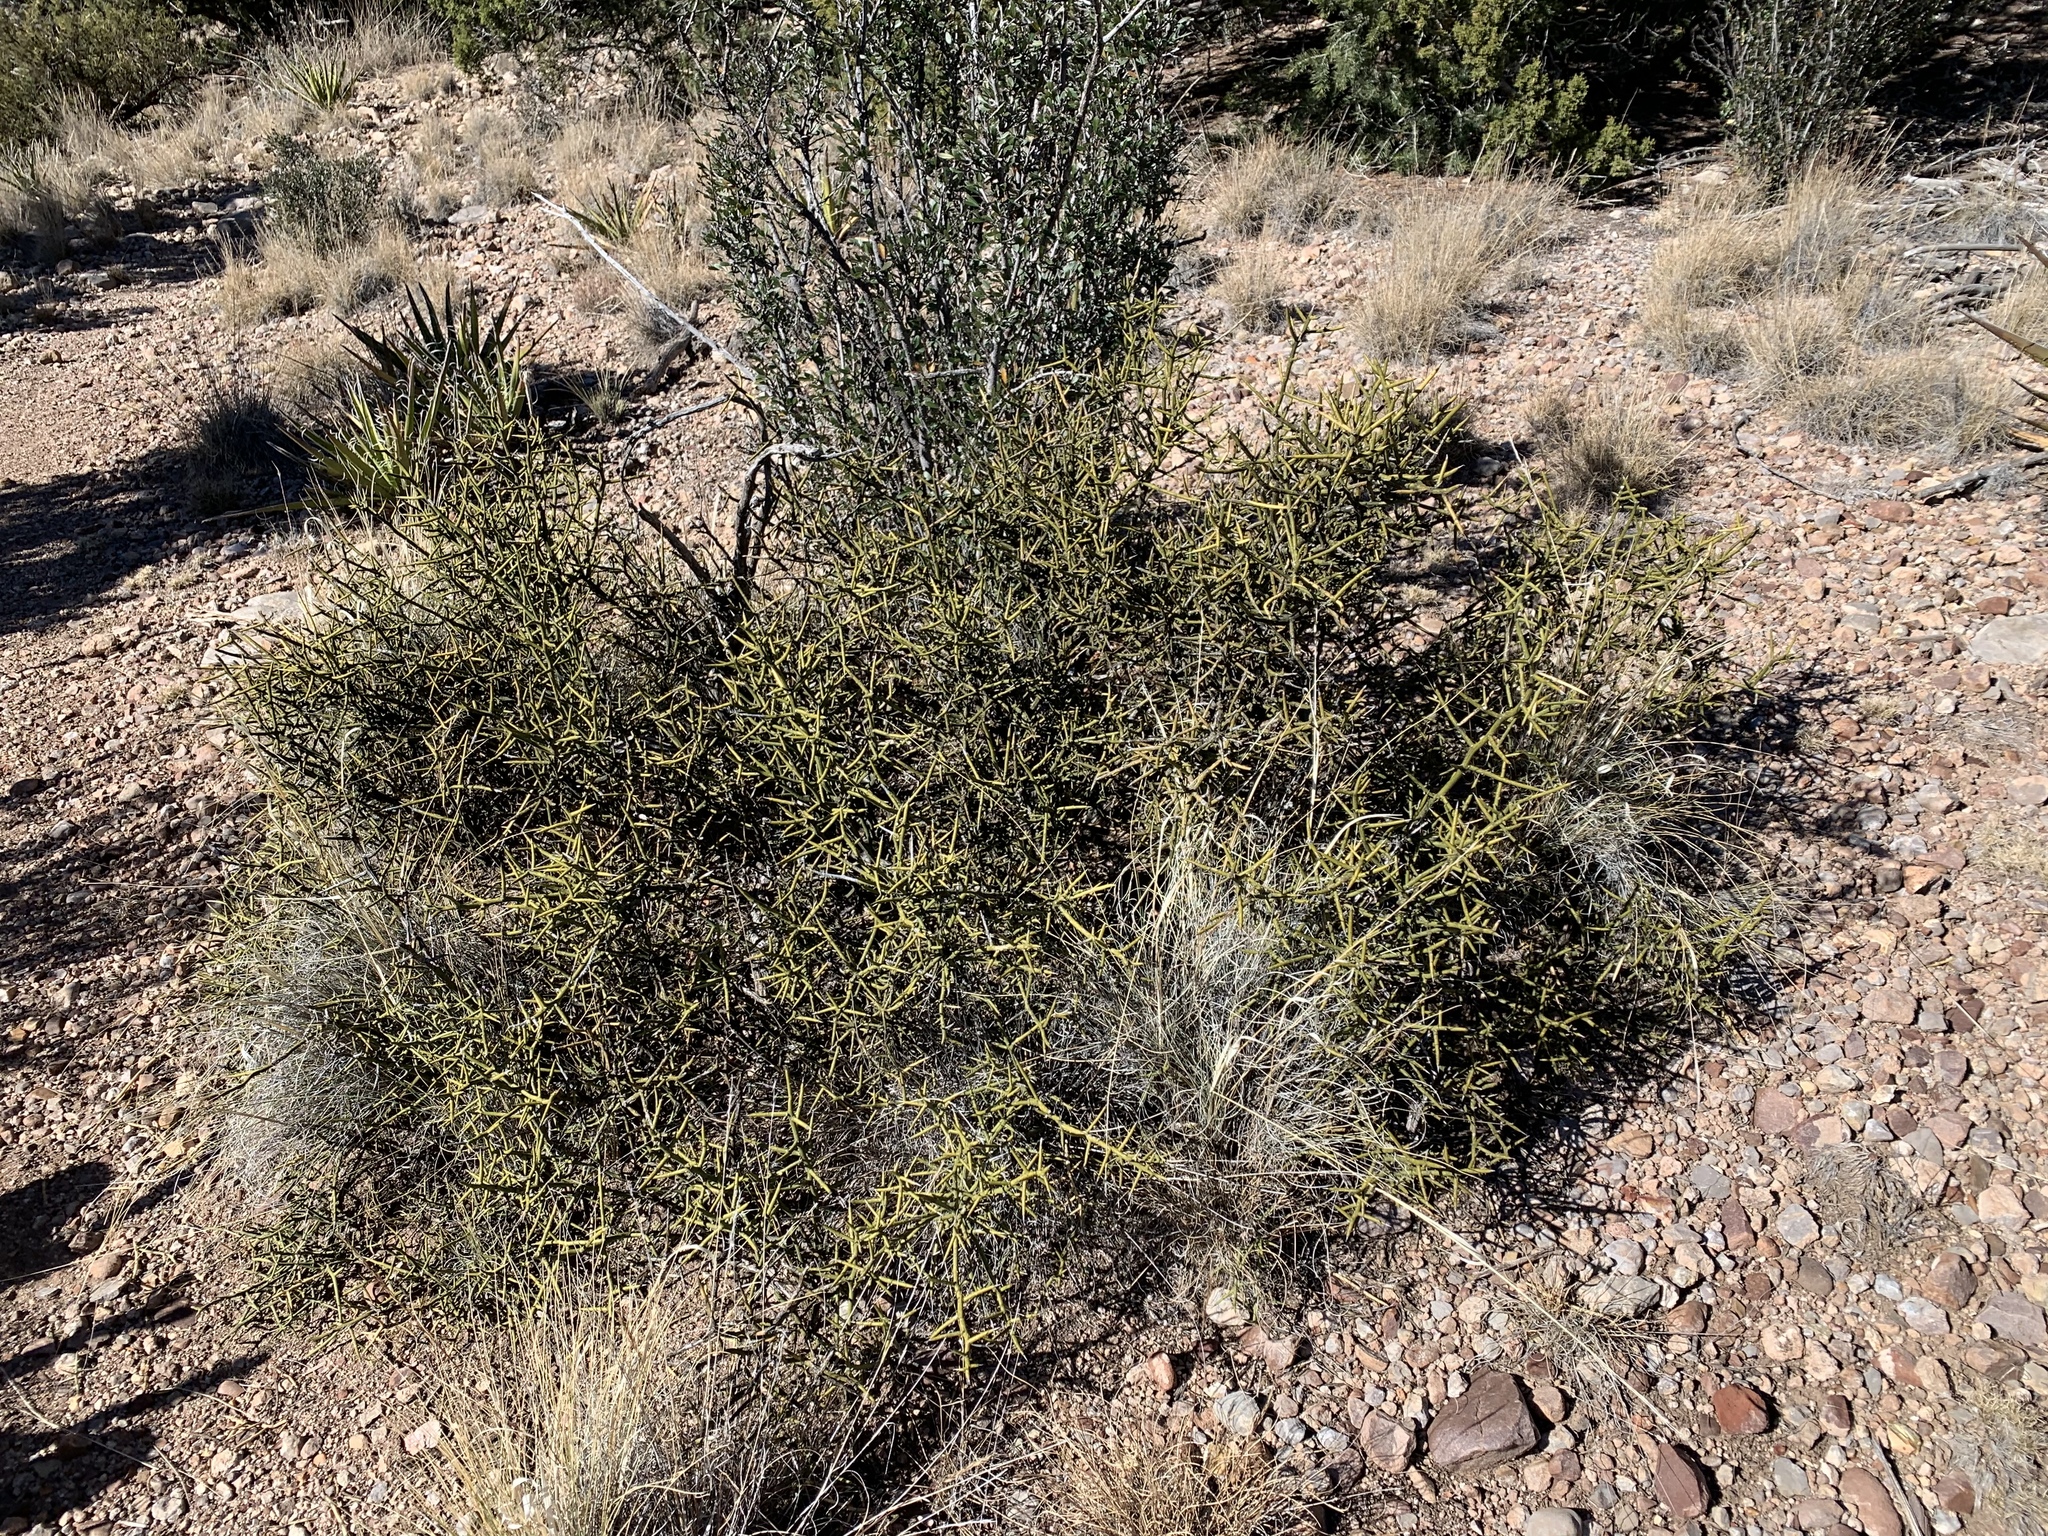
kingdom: Plantae
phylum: Tracheophyta
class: Magnoliopsida
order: Brassicales
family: Koeberliniaceae
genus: Koeberlinia
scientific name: Koeberlinia spinosa
